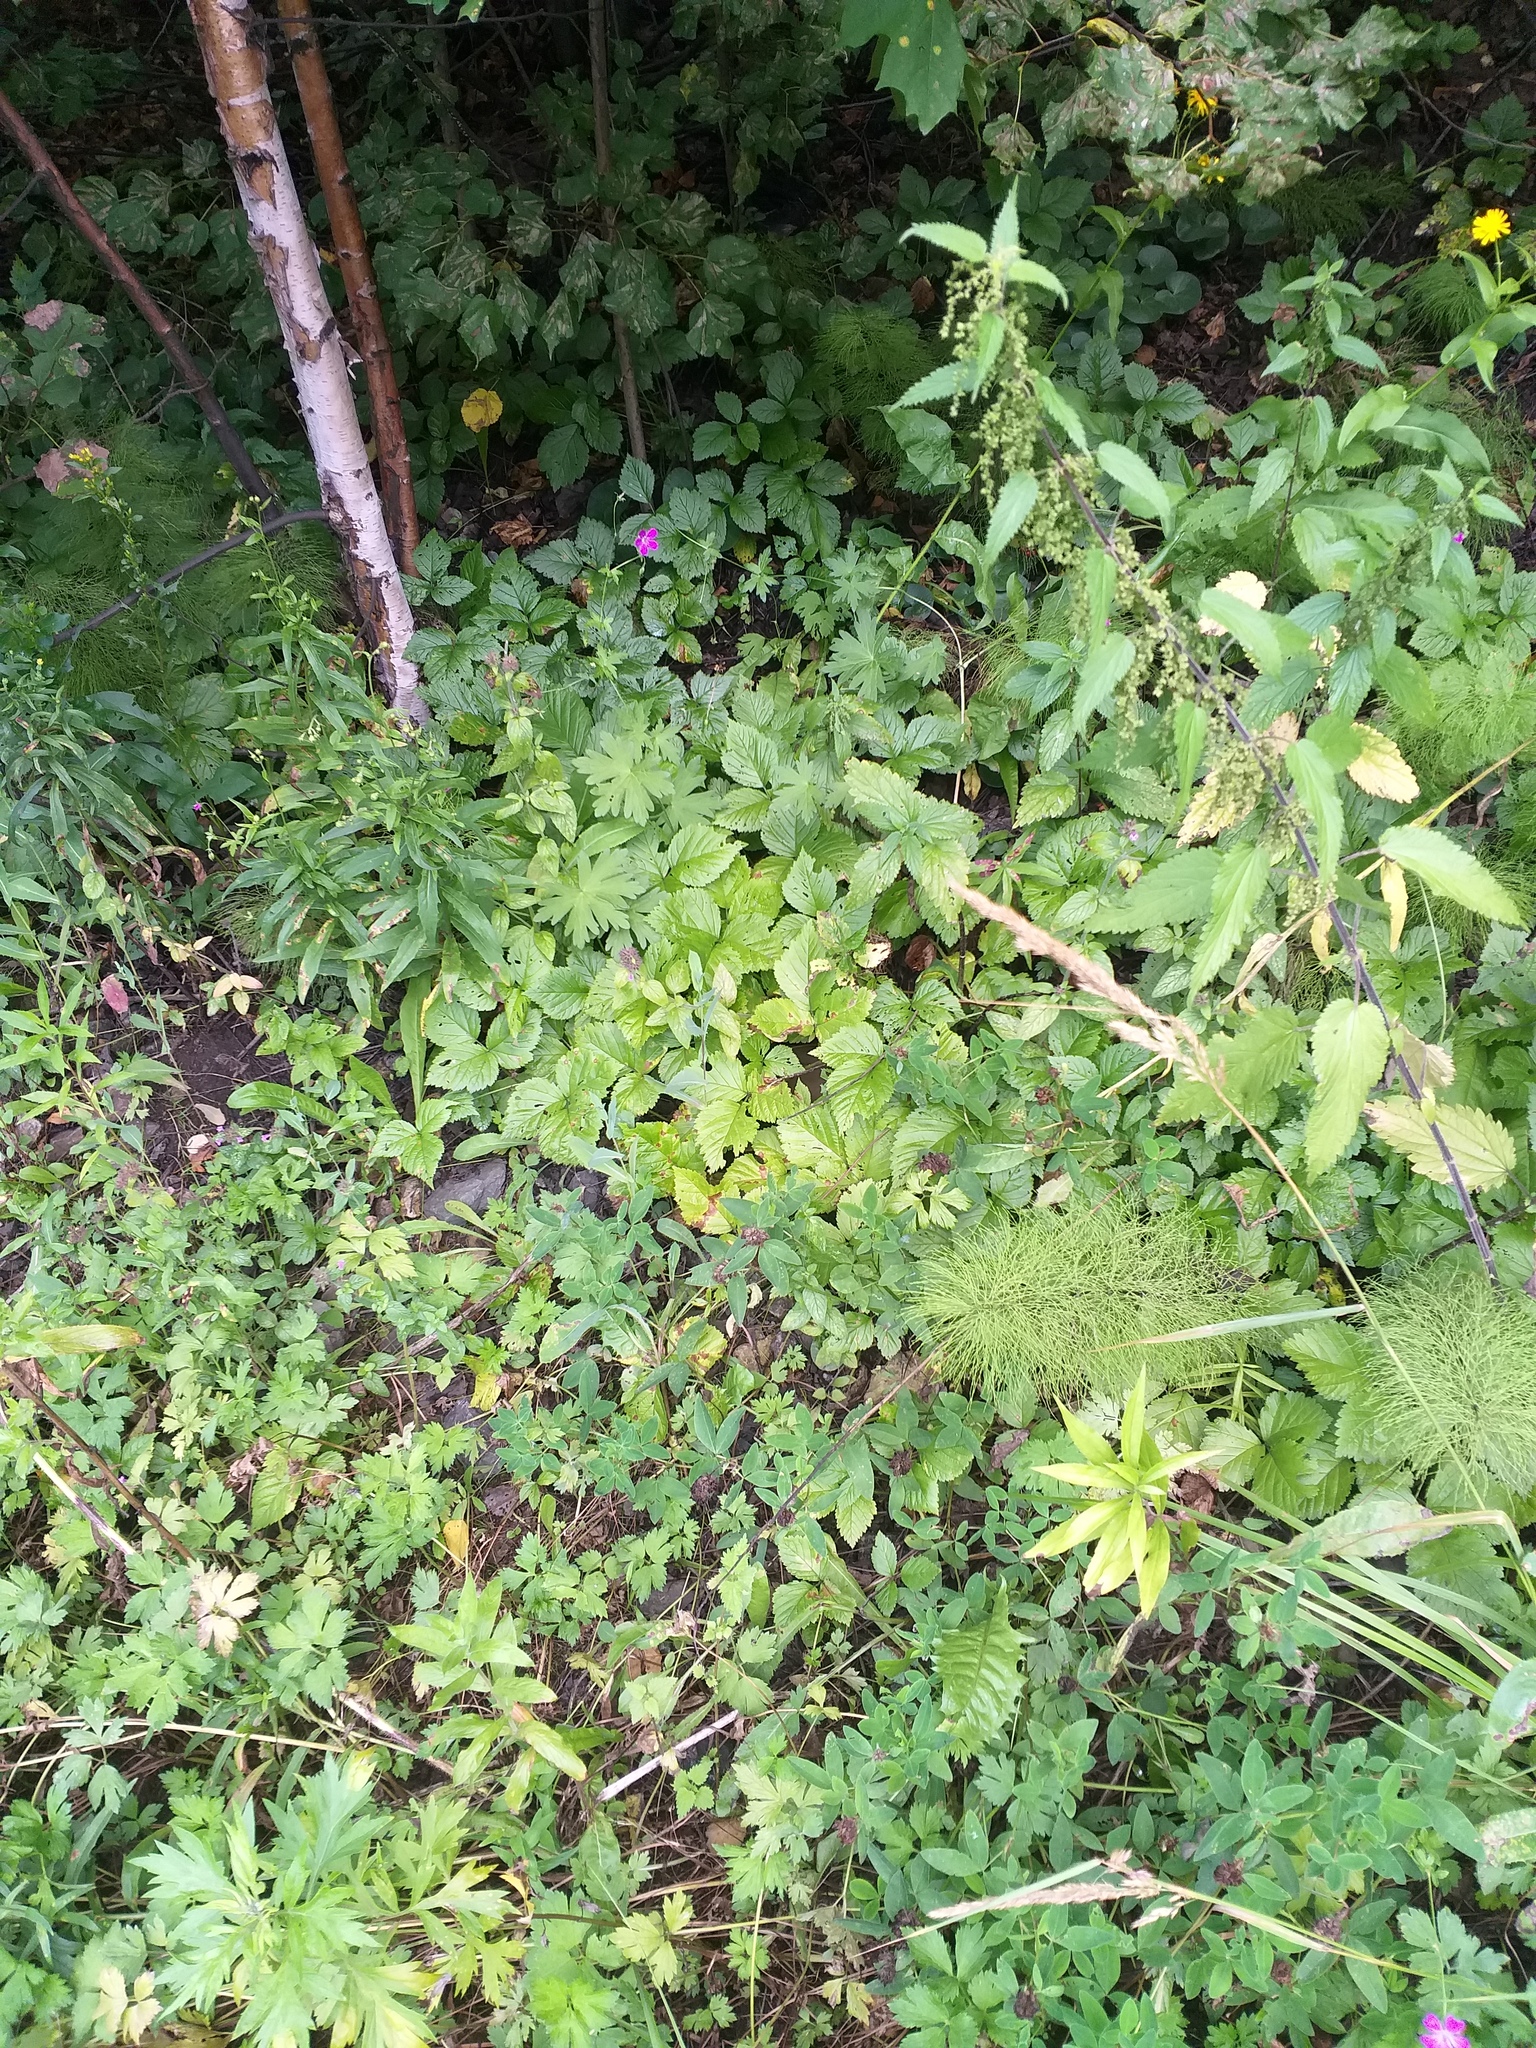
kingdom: Plantae
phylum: Tracheophyta
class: Magnoliopsida
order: Rosales
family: Rosaceae
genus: Rubus
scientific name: Rubus saxatilis
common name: Stone bramble
